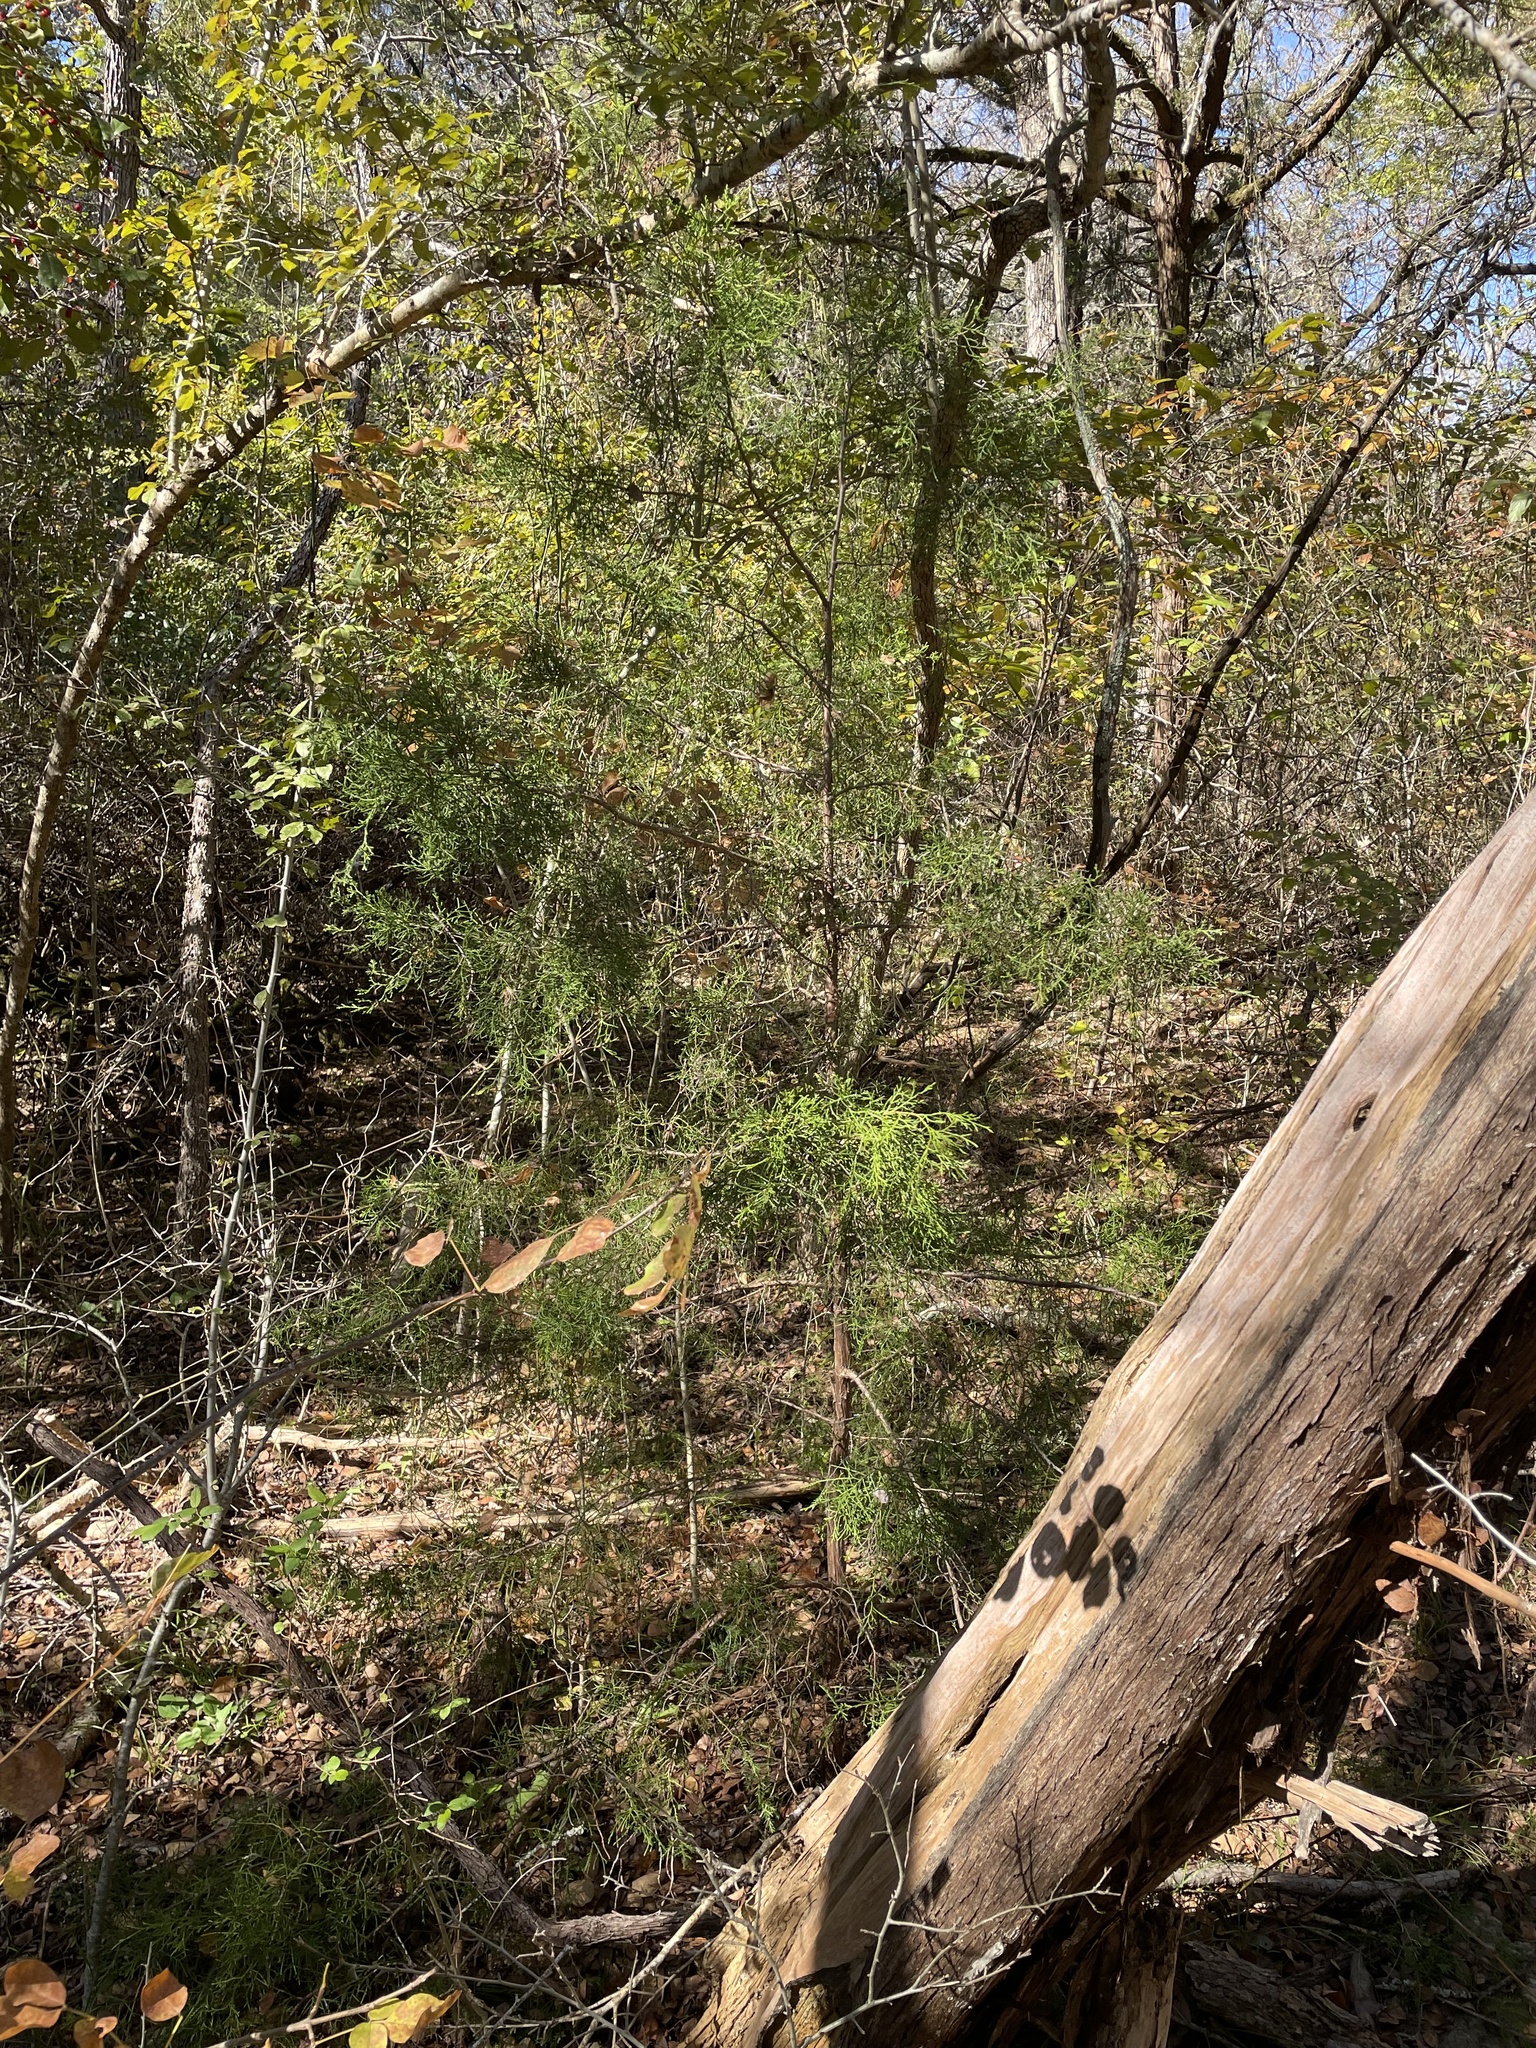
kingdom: Plantae
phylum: Tracheophyta
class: Pinopsida
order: Pinales
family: Cupressaceae
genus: Juniperus
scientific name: Juniperus virginiana
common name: Red juniper
